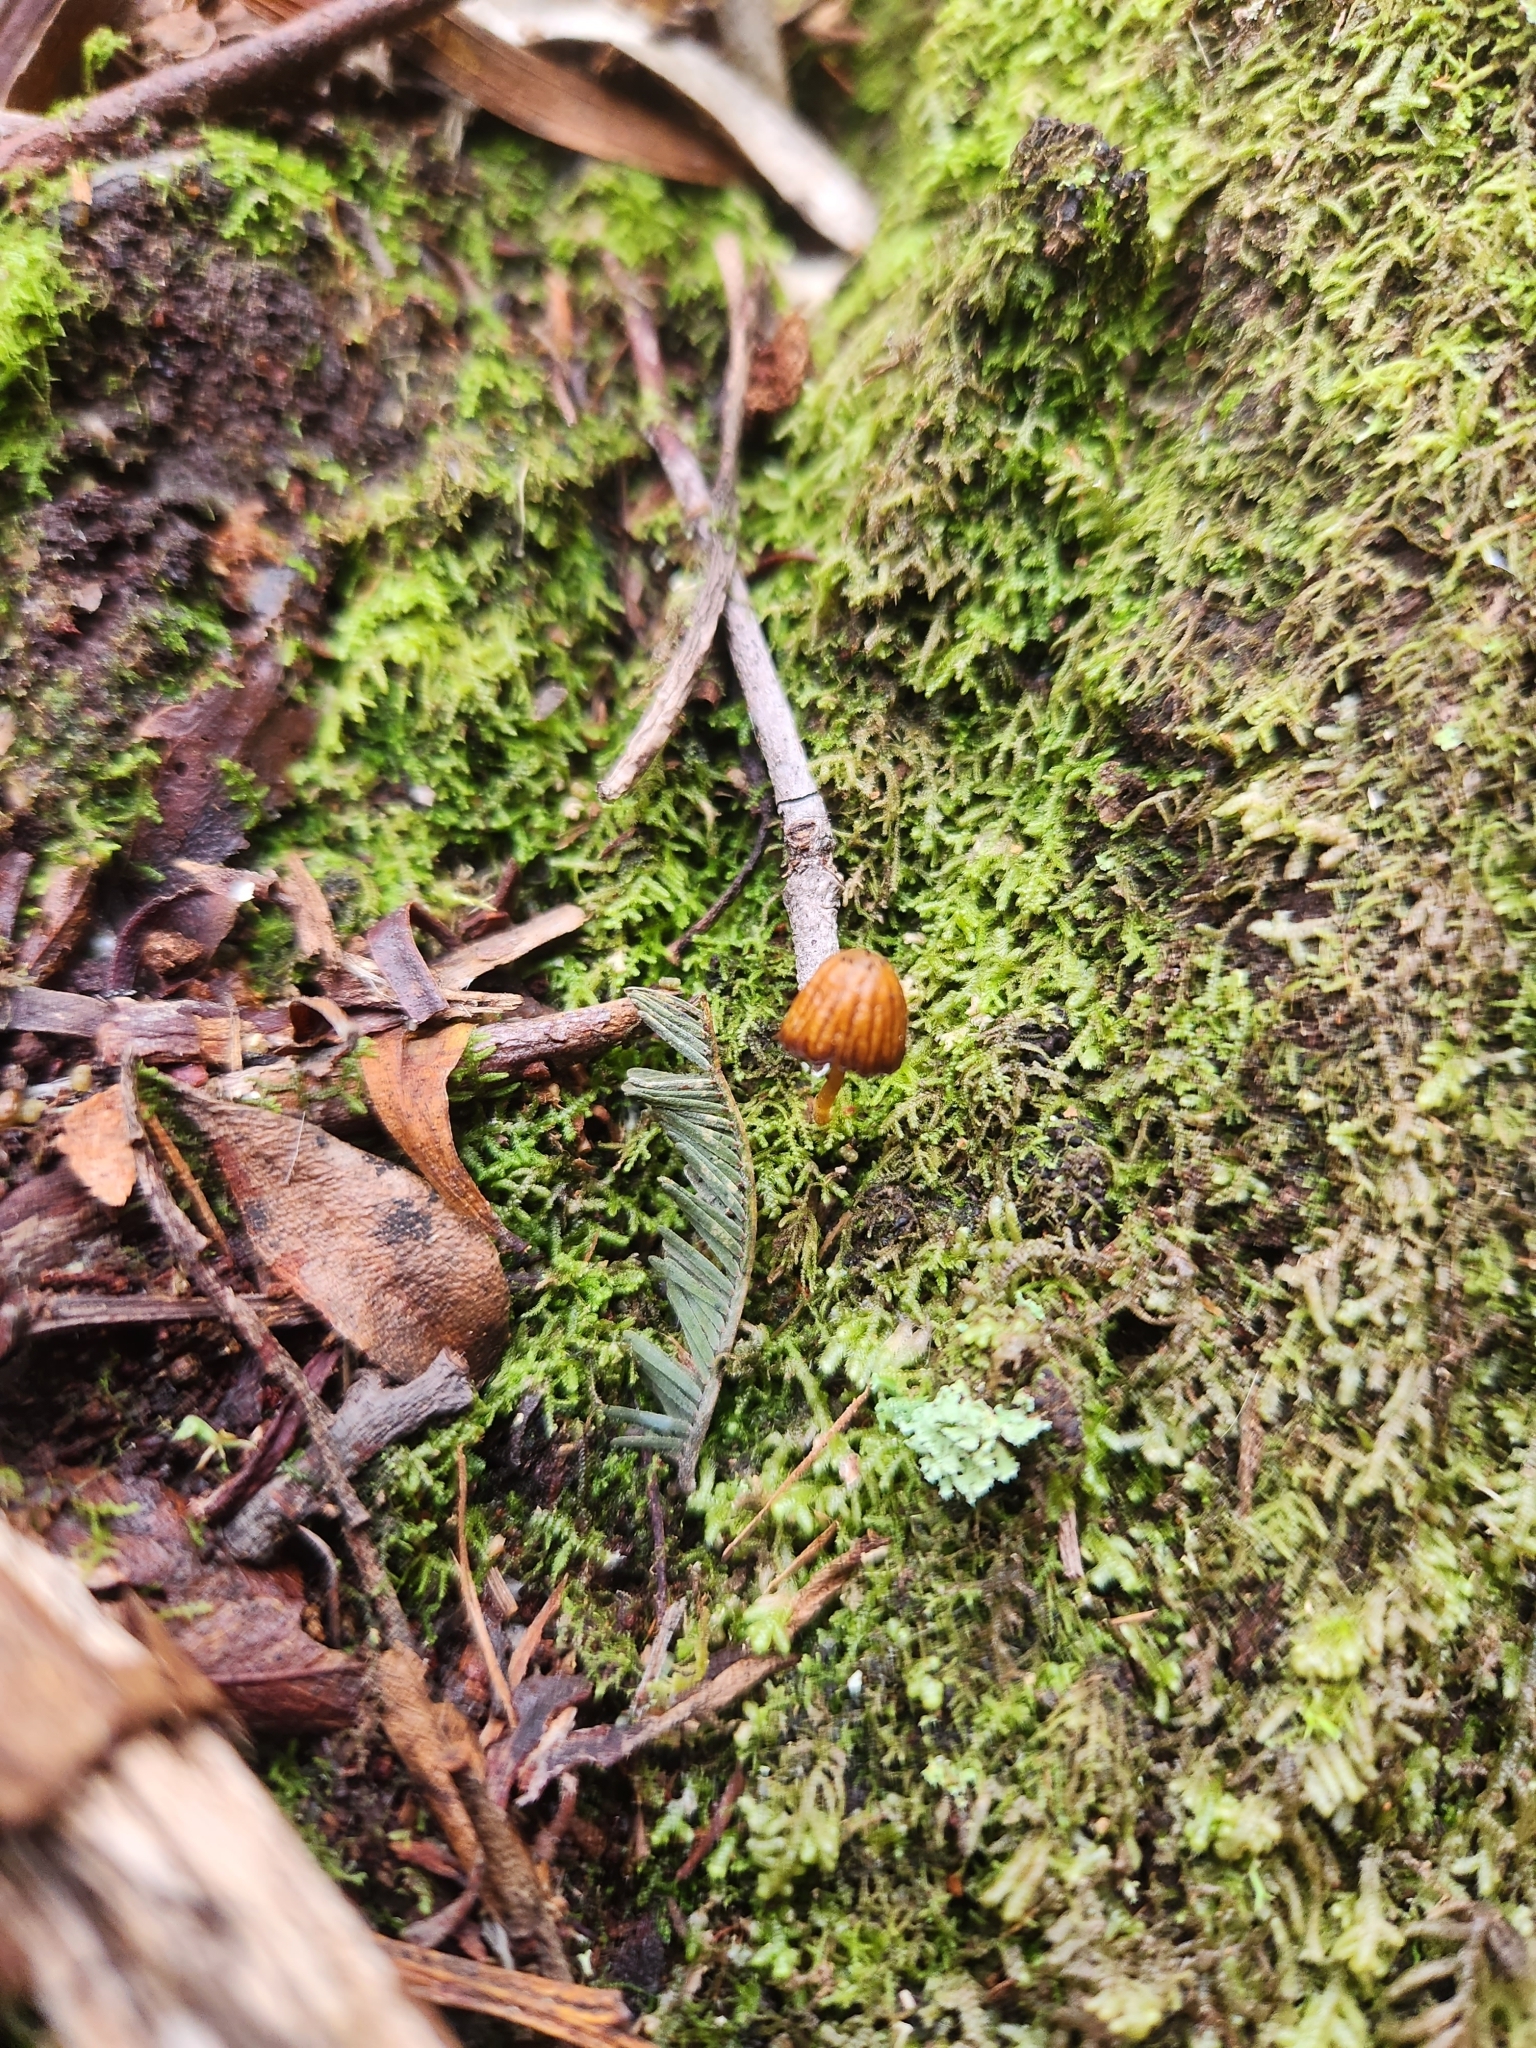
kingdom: Fungi
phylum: Basidiomycota
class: Agaricomycetes
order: Agaricales
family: Hymenogastraceae
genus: Galerina
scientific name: Galerina hypnorum
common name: Moss bell
